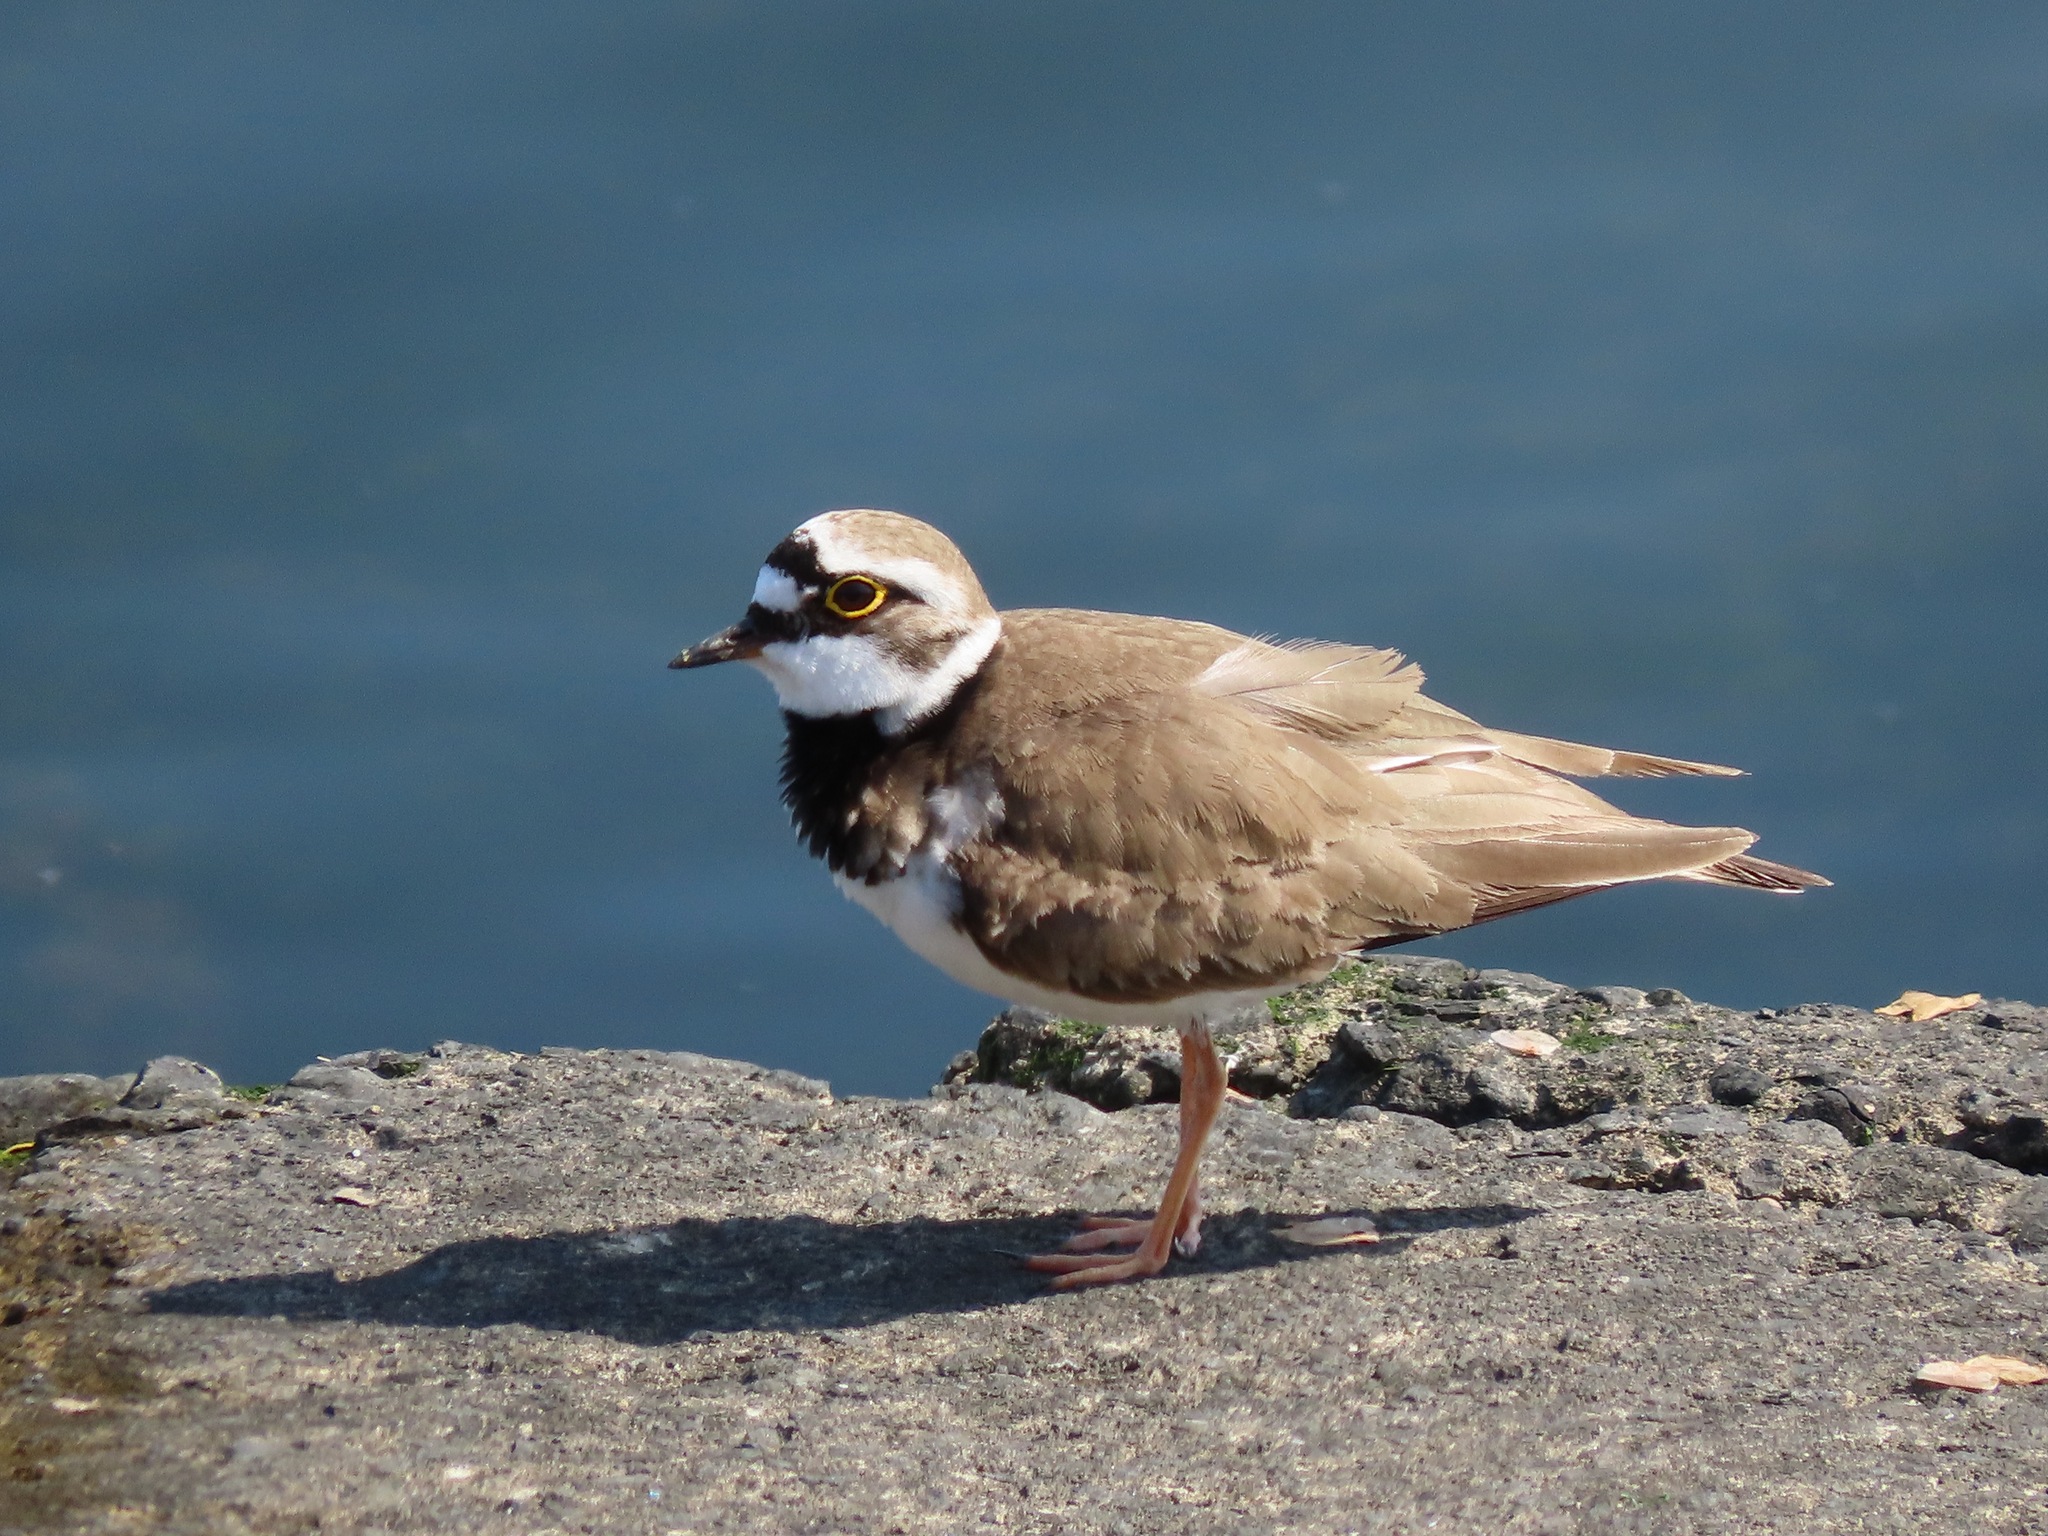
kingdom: Animalia
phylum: Chordata
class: Aves
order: Charadriiformes
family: Charadriidae
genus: Charadrius
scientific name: Charadrius dubius
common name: Little ringed plover
